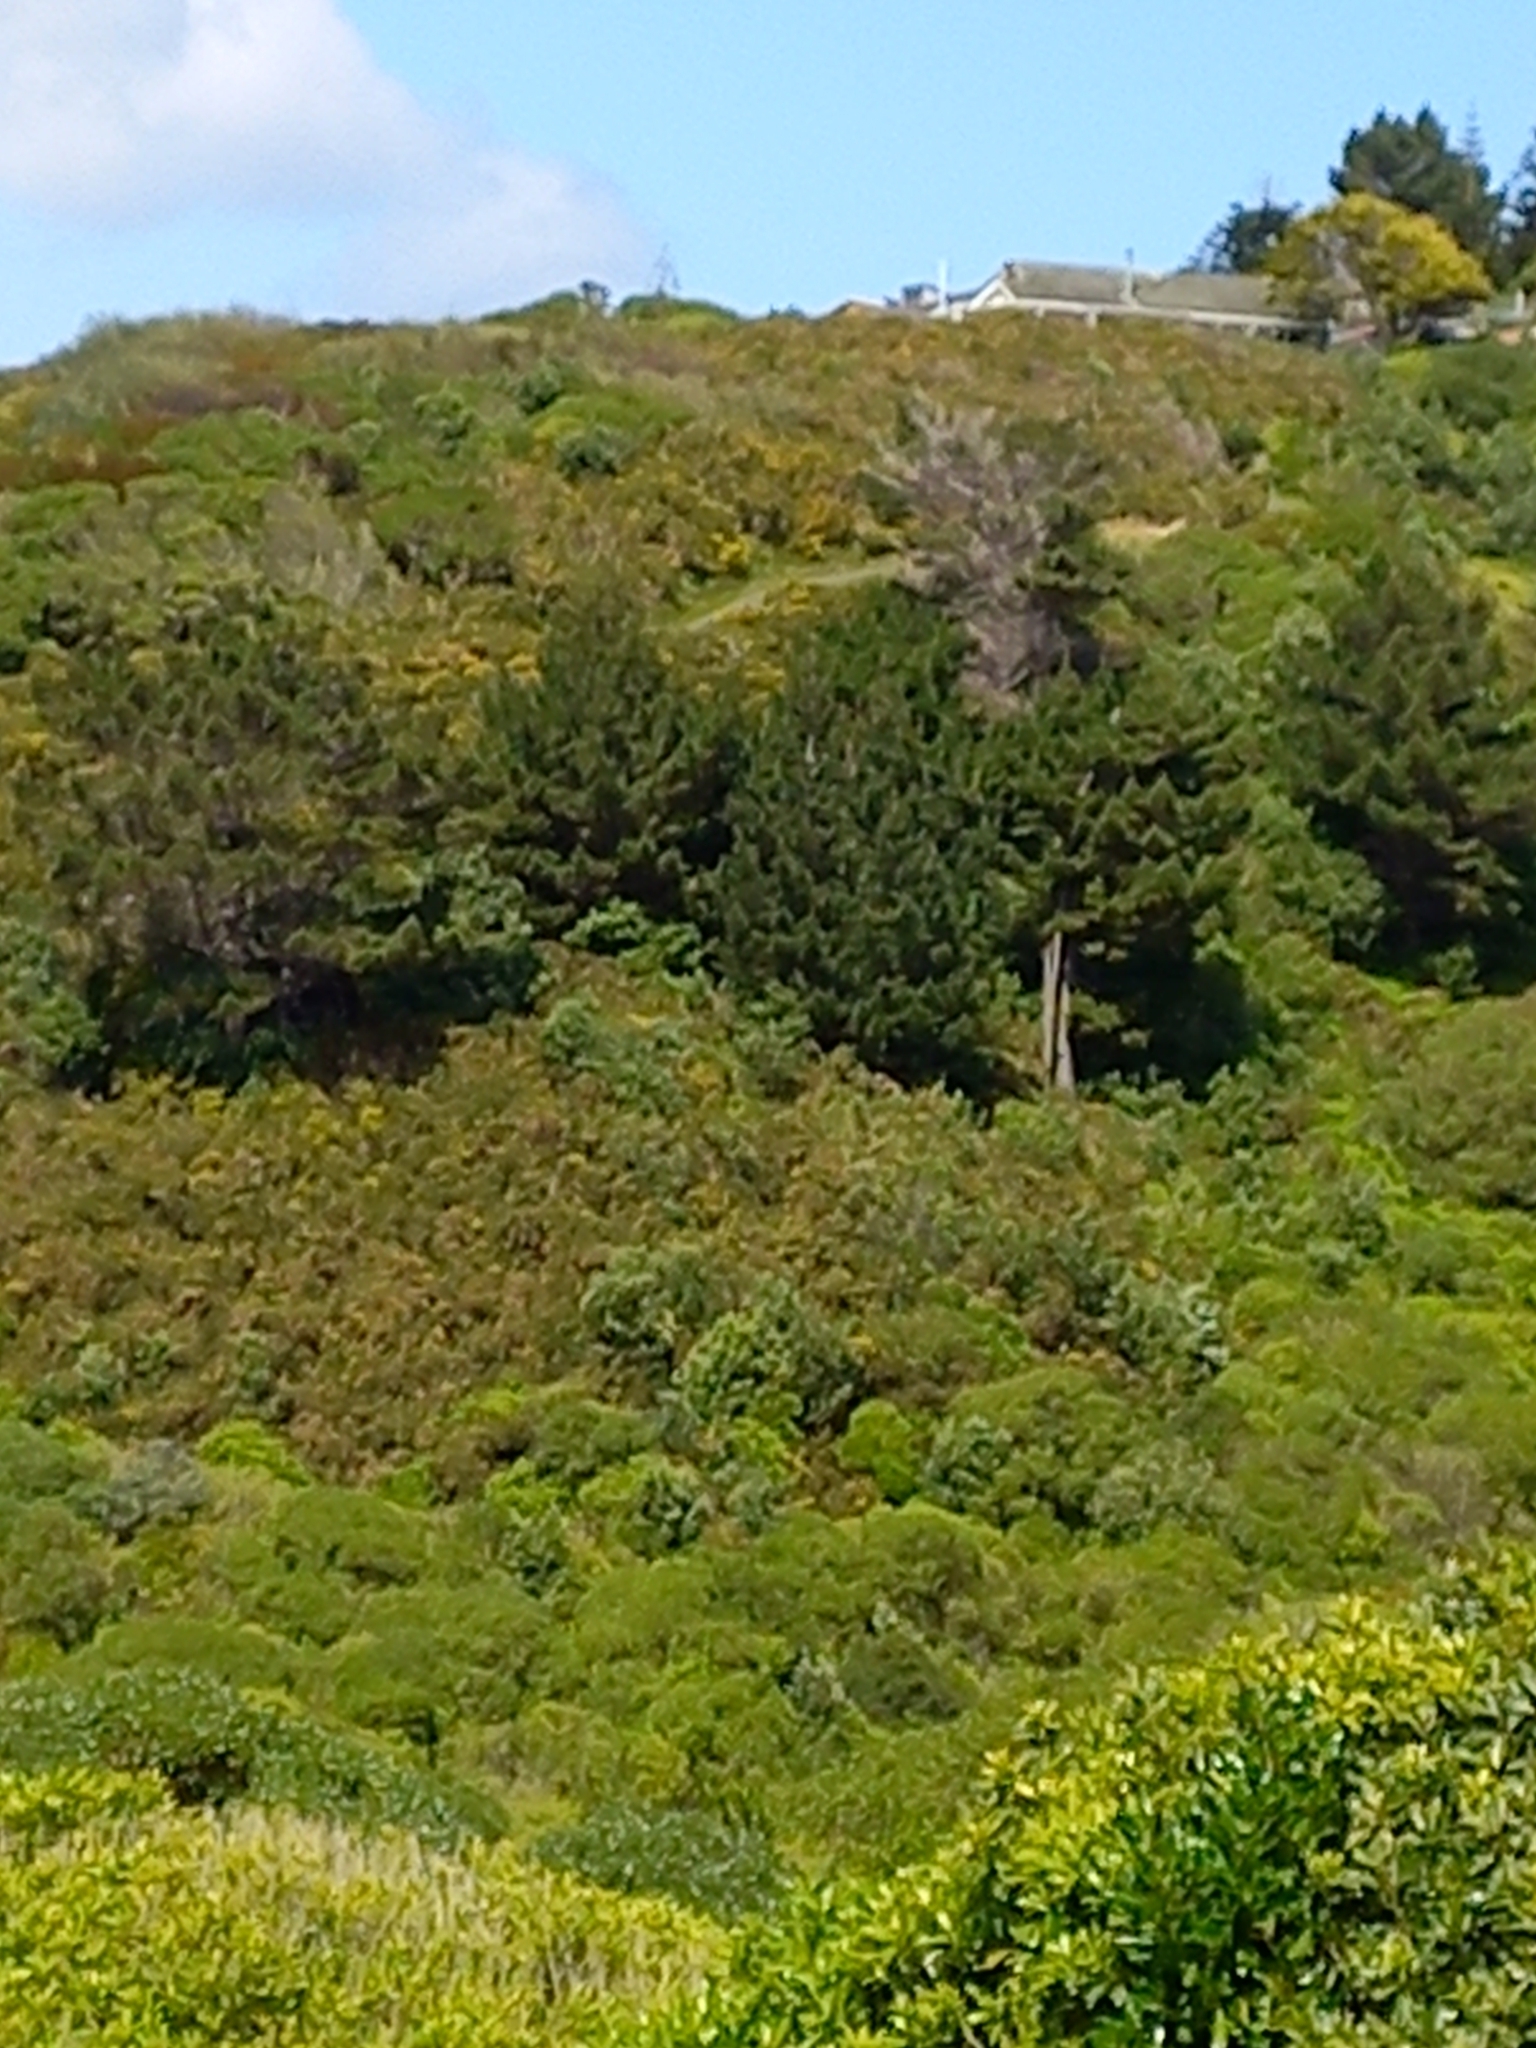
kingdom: Plantae
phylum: Tracheophyta
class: Pinopsida
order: Pinales
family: Pinaceae
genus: Pinus
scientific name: Pinus radiata
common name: Monterey pine
